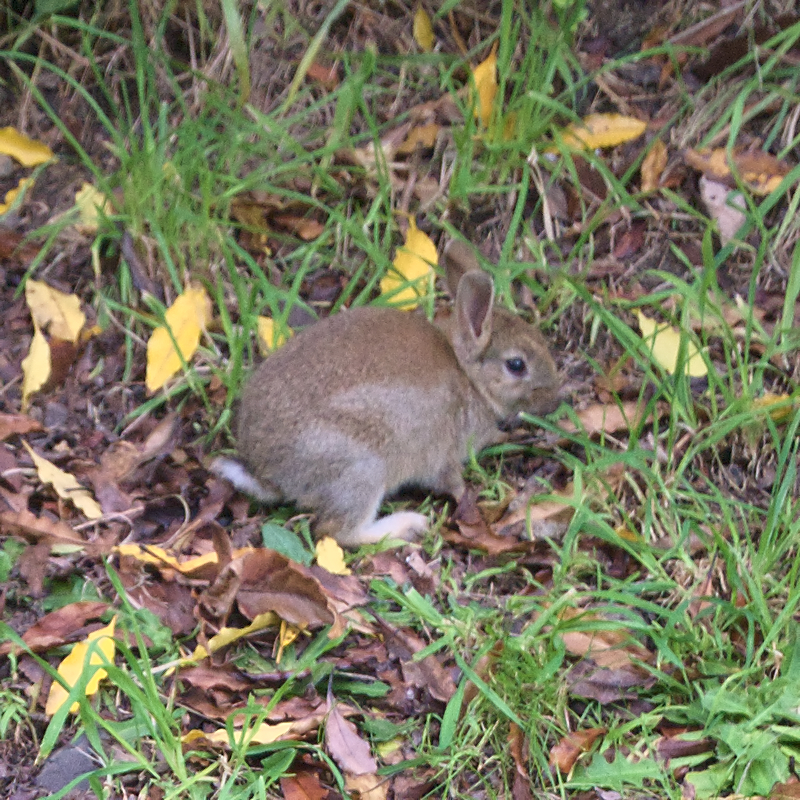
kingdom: Animalia
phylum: Chordata
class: Mammalia
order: Lagomorpha
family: Leporidae
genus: Oryctolagus
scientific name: Oryctolagus cuniculus
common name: European rabbit
